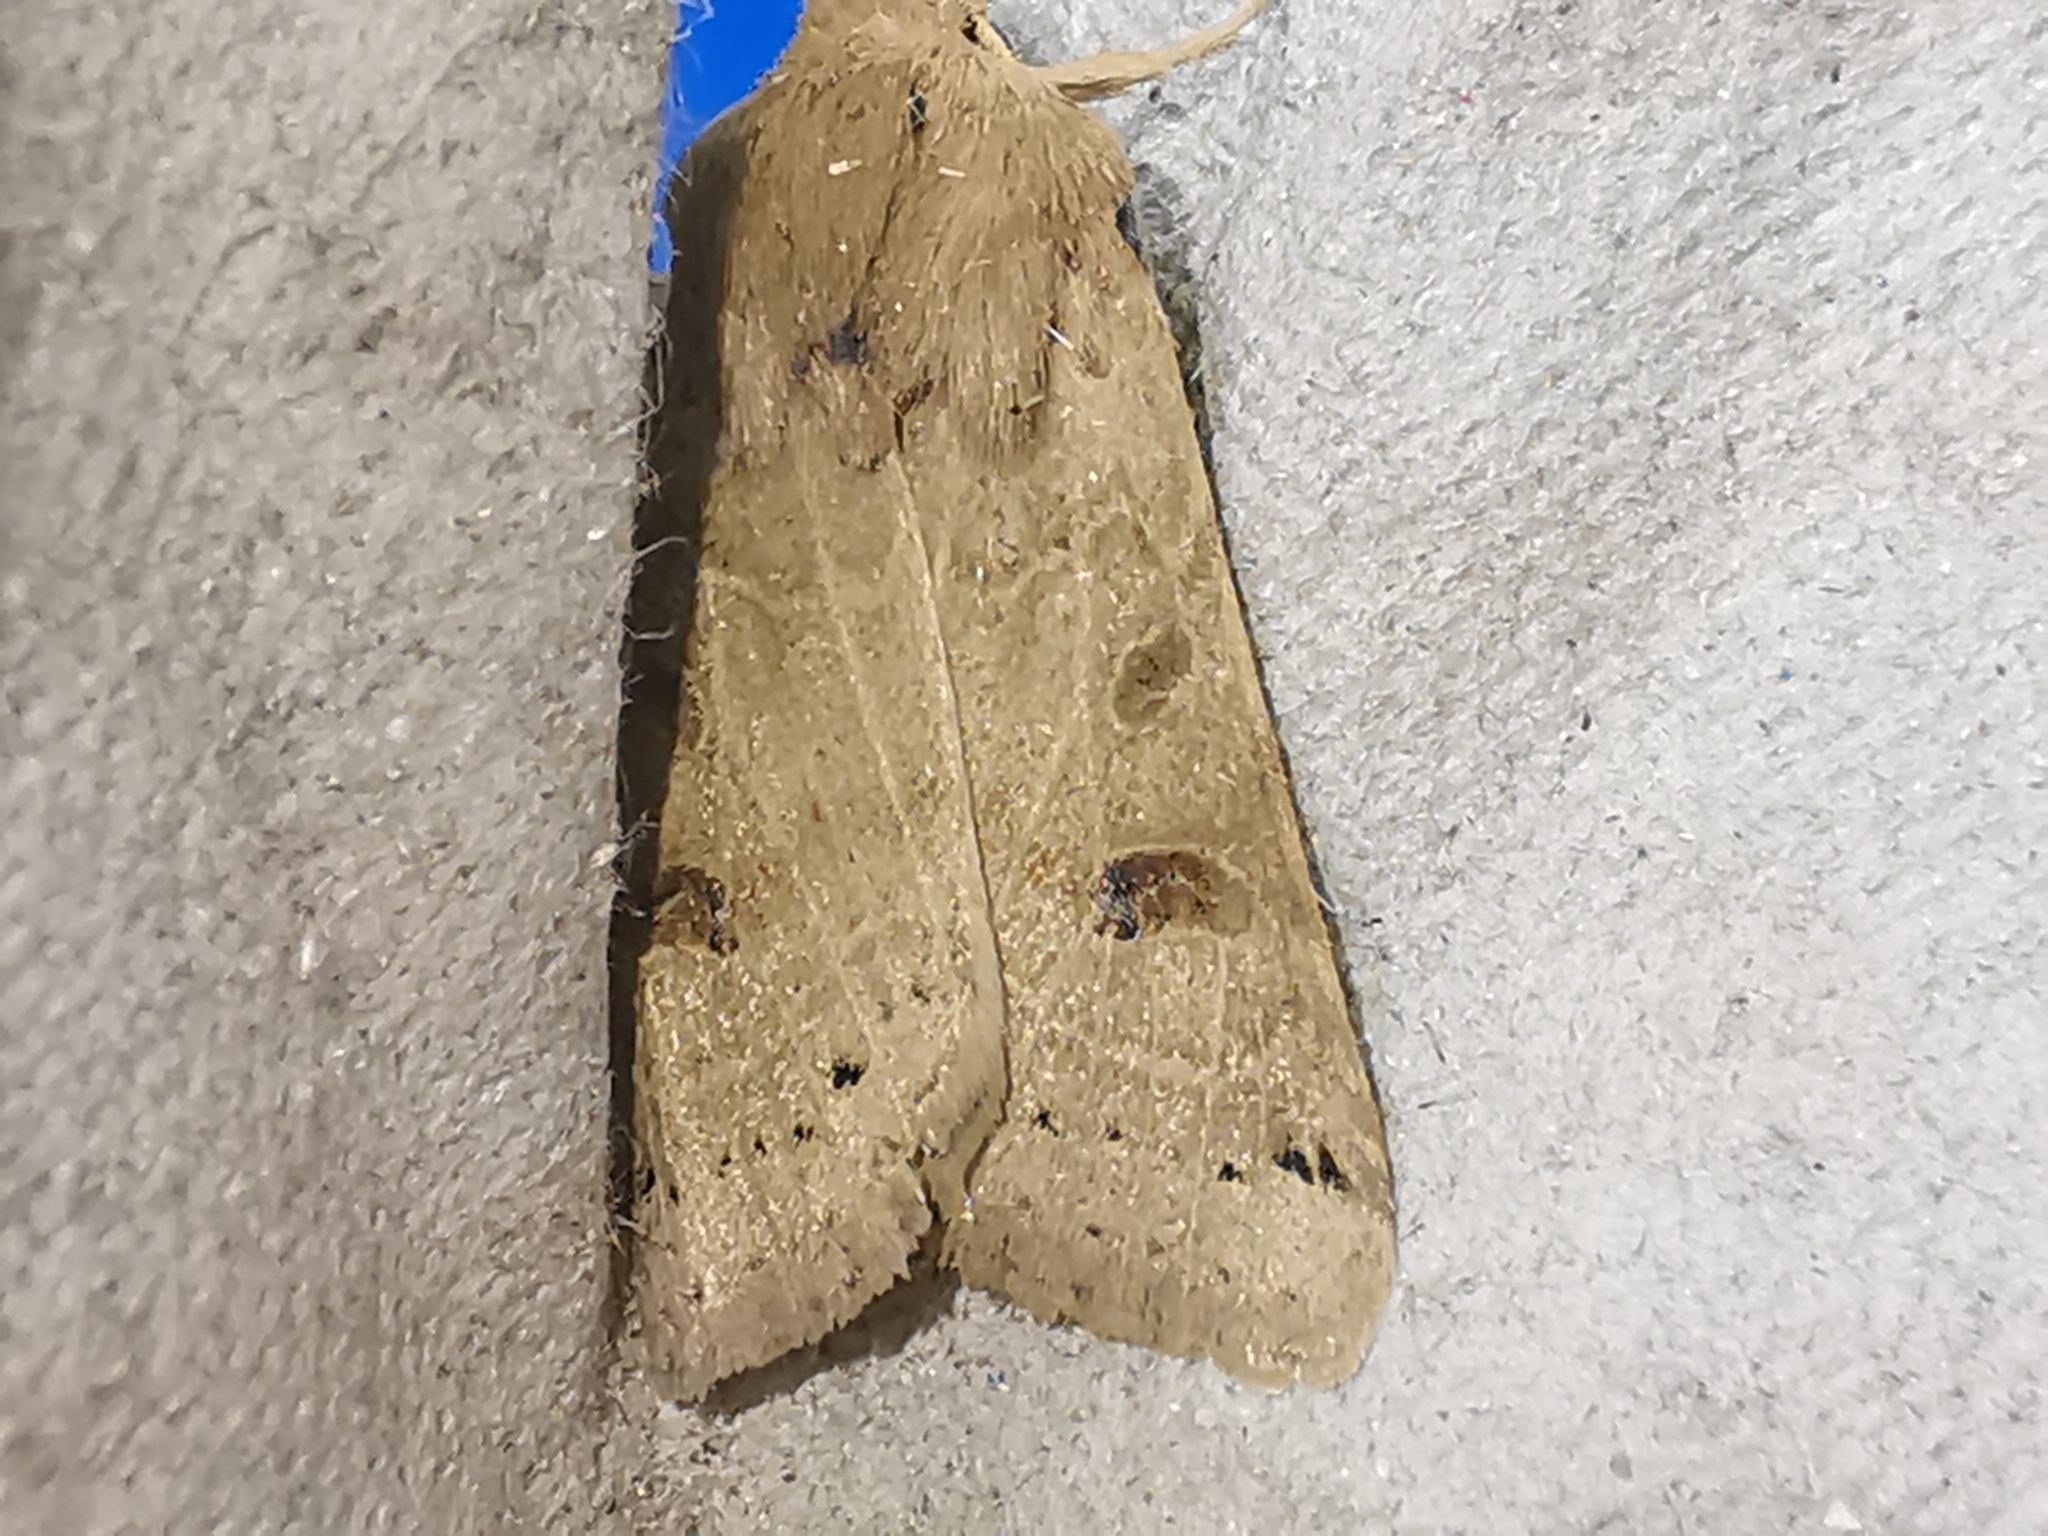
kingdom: Animalia
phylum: Arthropoda
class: Insecta
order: Lepidoptera
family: Noctuidae
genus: Agrochola
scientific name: Agrochola lunosa
